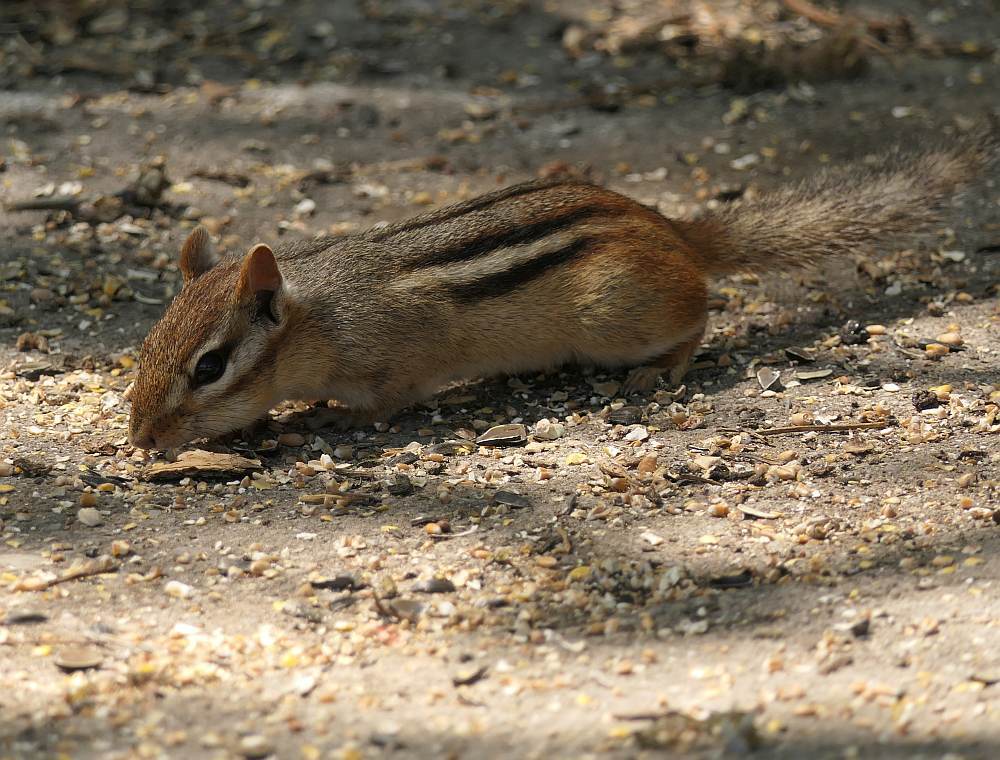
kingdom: Animalia
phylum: Chordata
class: Mammalia
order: Rodentia
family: Sciuridae
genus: Tamias
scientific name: Tamias striatus
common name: Eastern chipmunk
